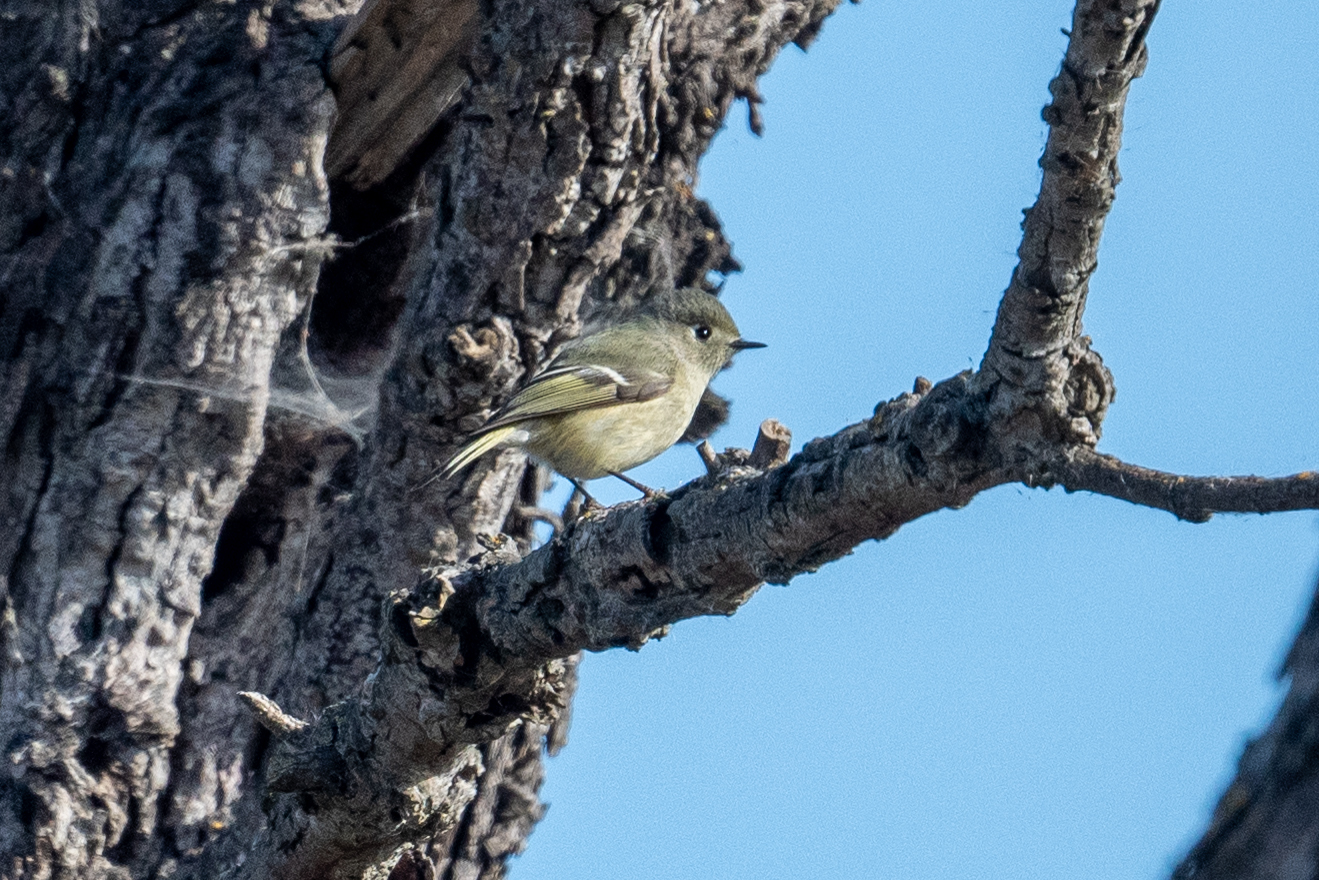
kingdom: Animalia
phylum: Chordata
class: Aves
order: Passeriformes
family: Regulidae
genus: Regulus
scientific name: Regulus calendula
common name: Ruby-crowned kinglet
